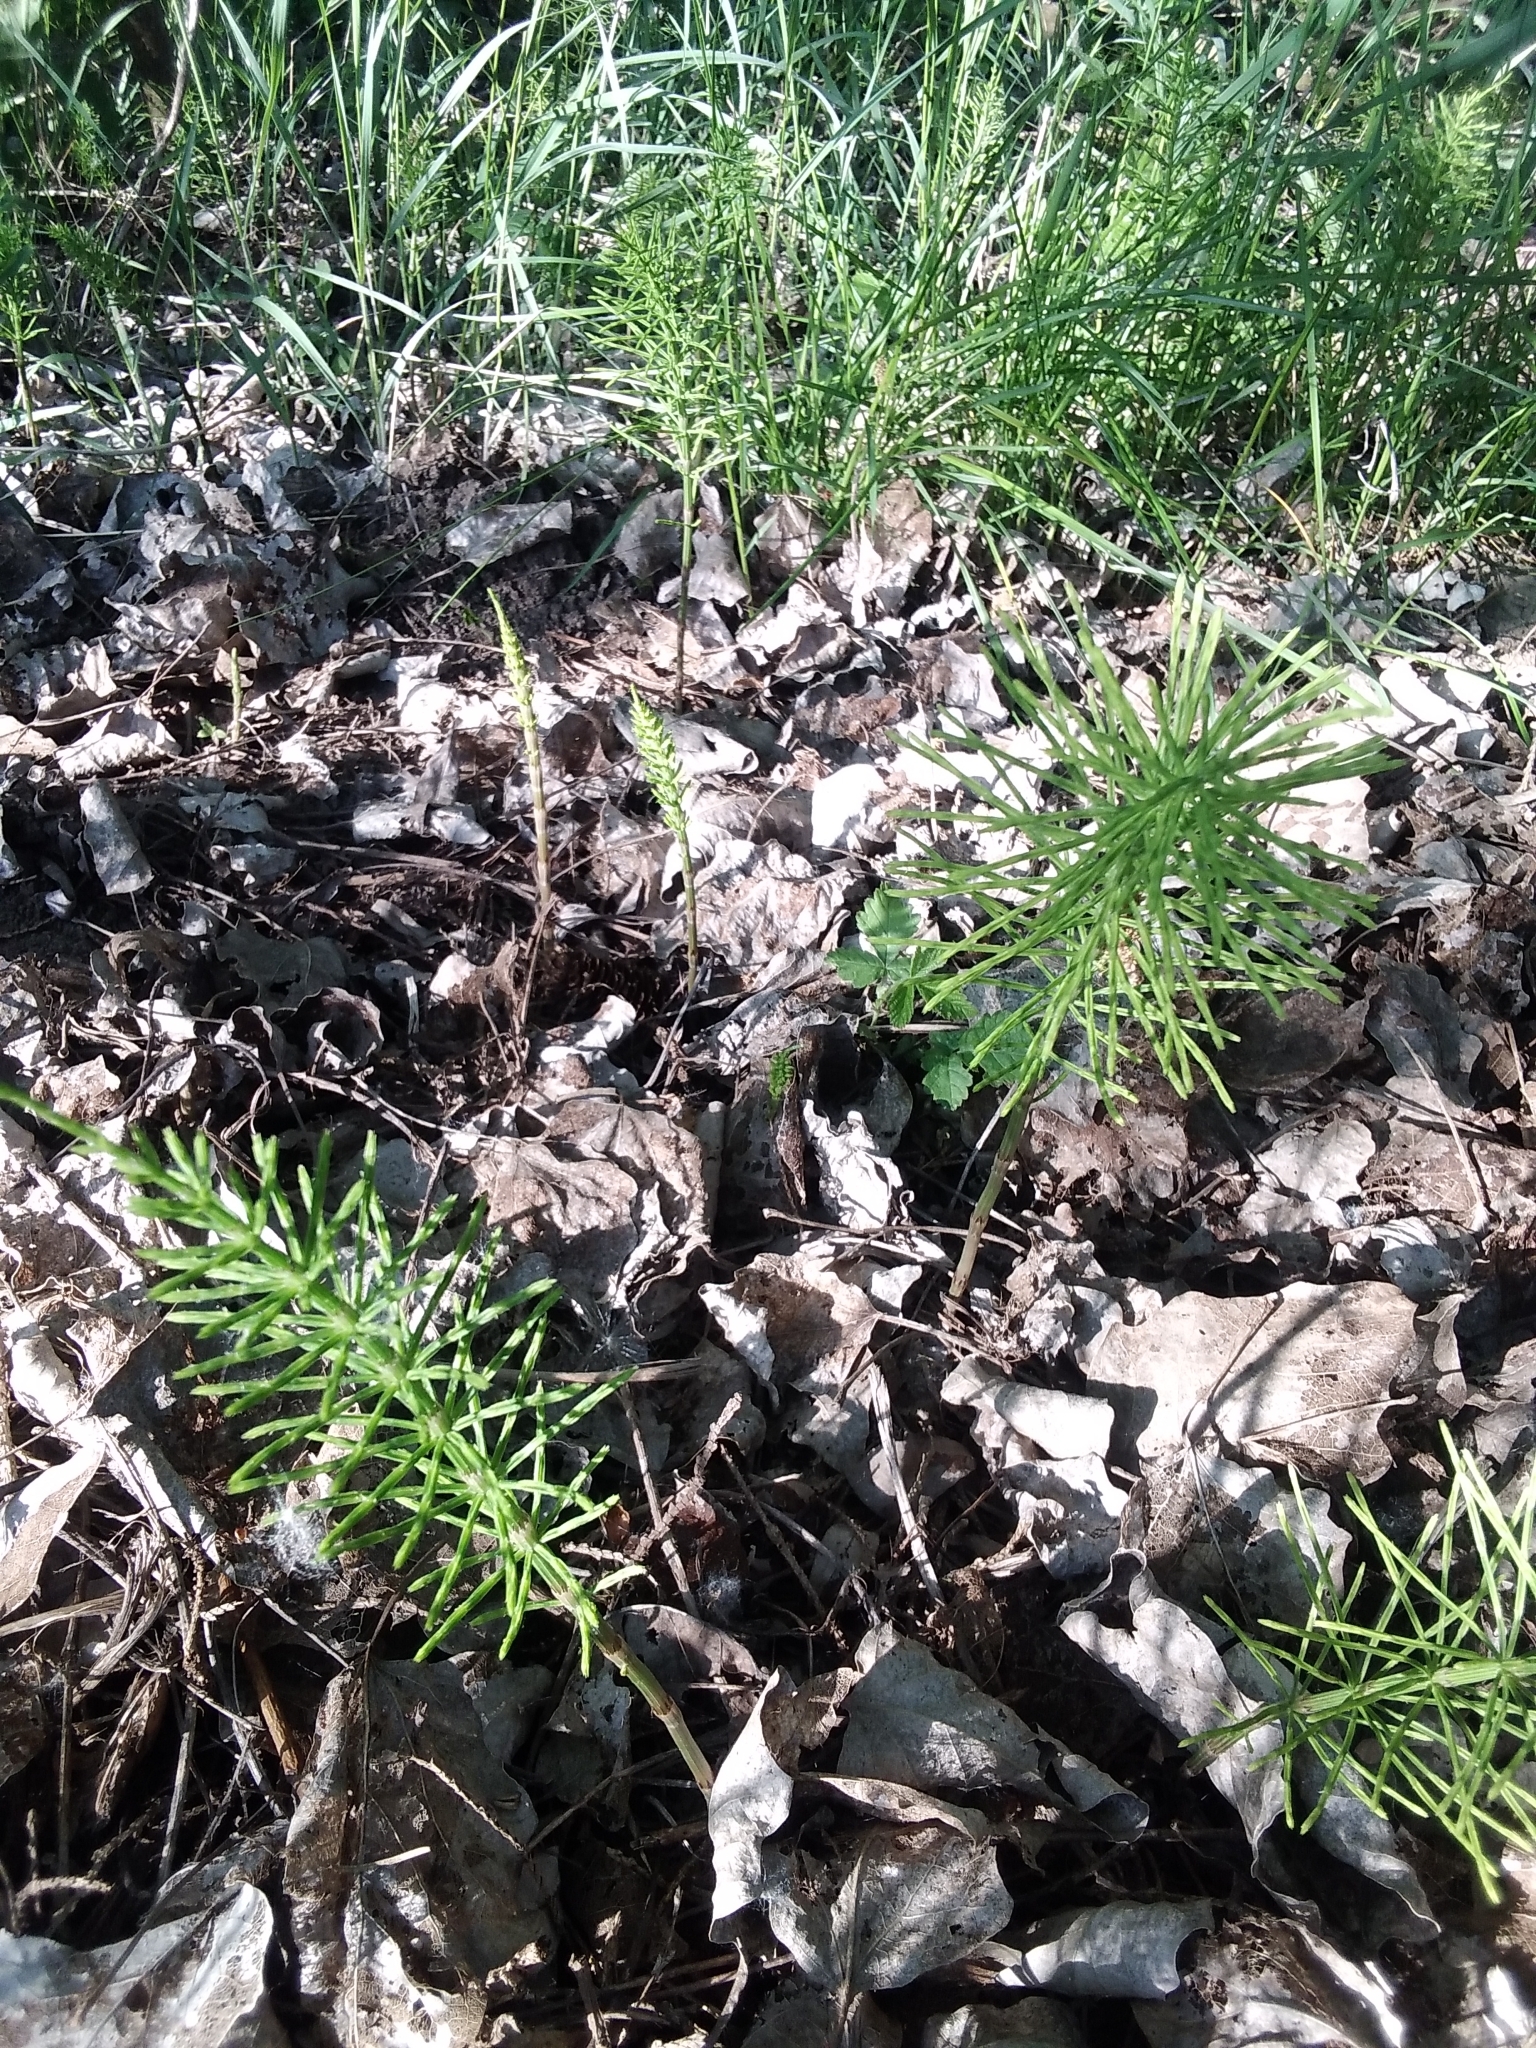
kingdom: Plantae
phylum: Tracheophyta
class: Polypodiopsida
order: Equisetales
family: Equisetaceae
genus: Equisetum
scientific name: Equisetum arvense
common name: Field horsetail
